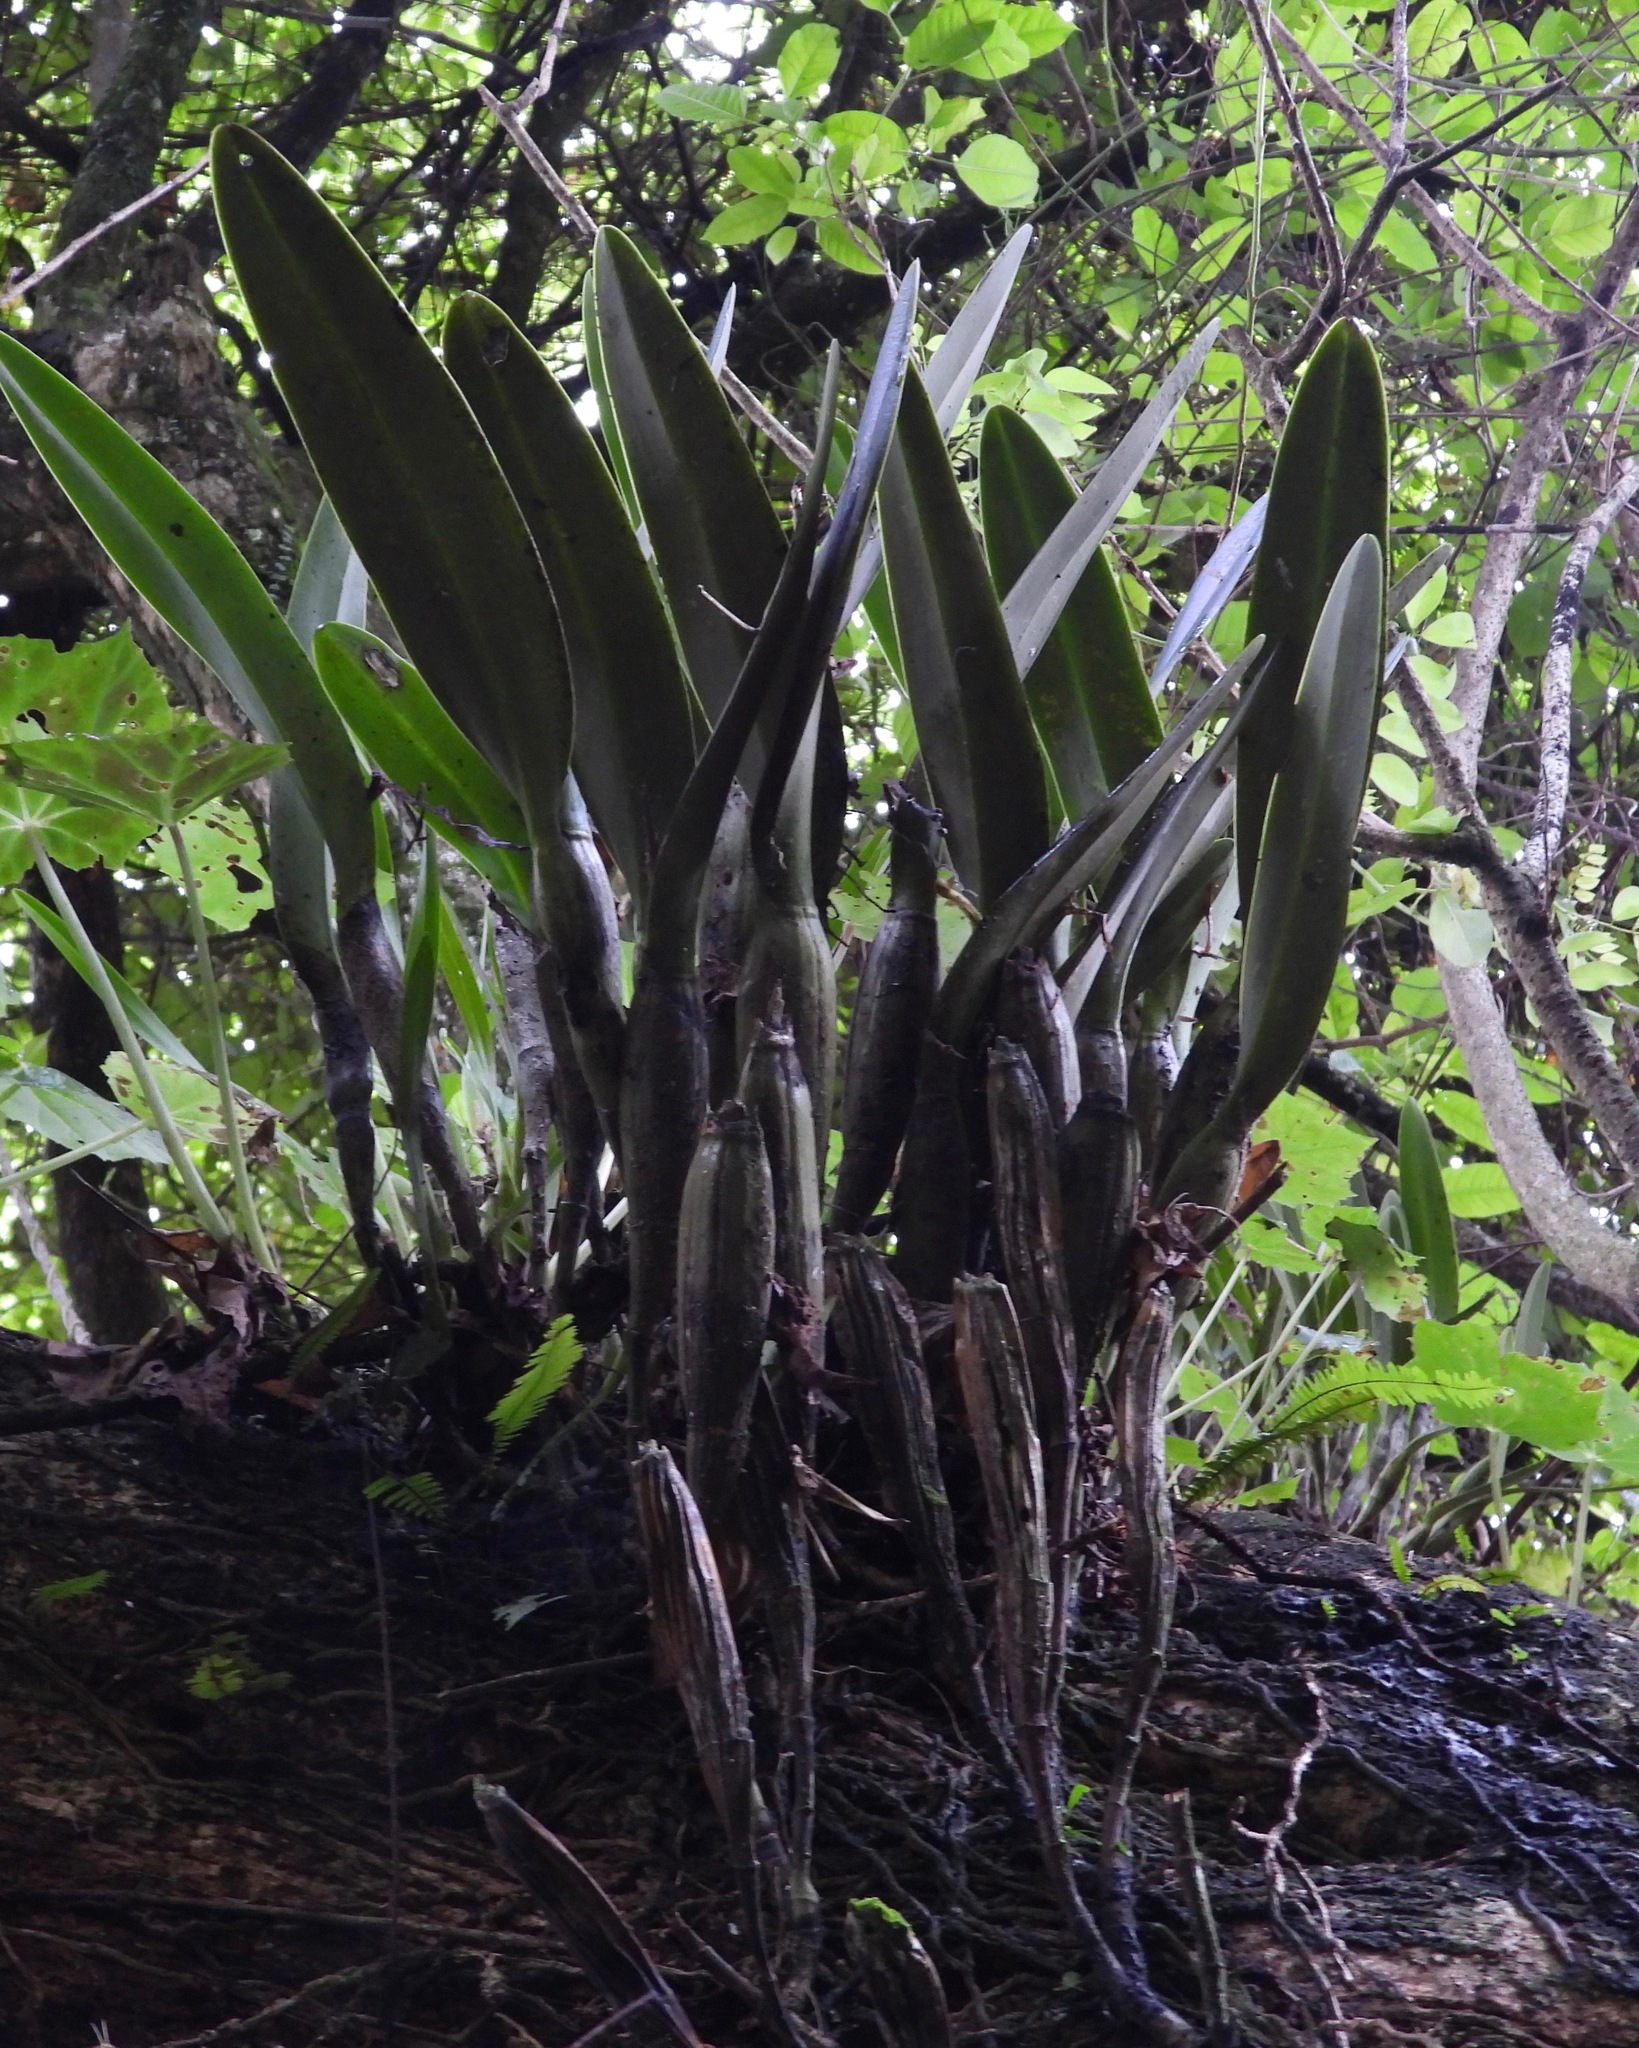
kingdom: Plantae
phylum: Tracheophyta
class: Liliopsida
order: Asparagales
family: Orchidaceae
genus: Epidendrum
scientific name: Epidendrum ciliare
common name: Eyelash orchid
